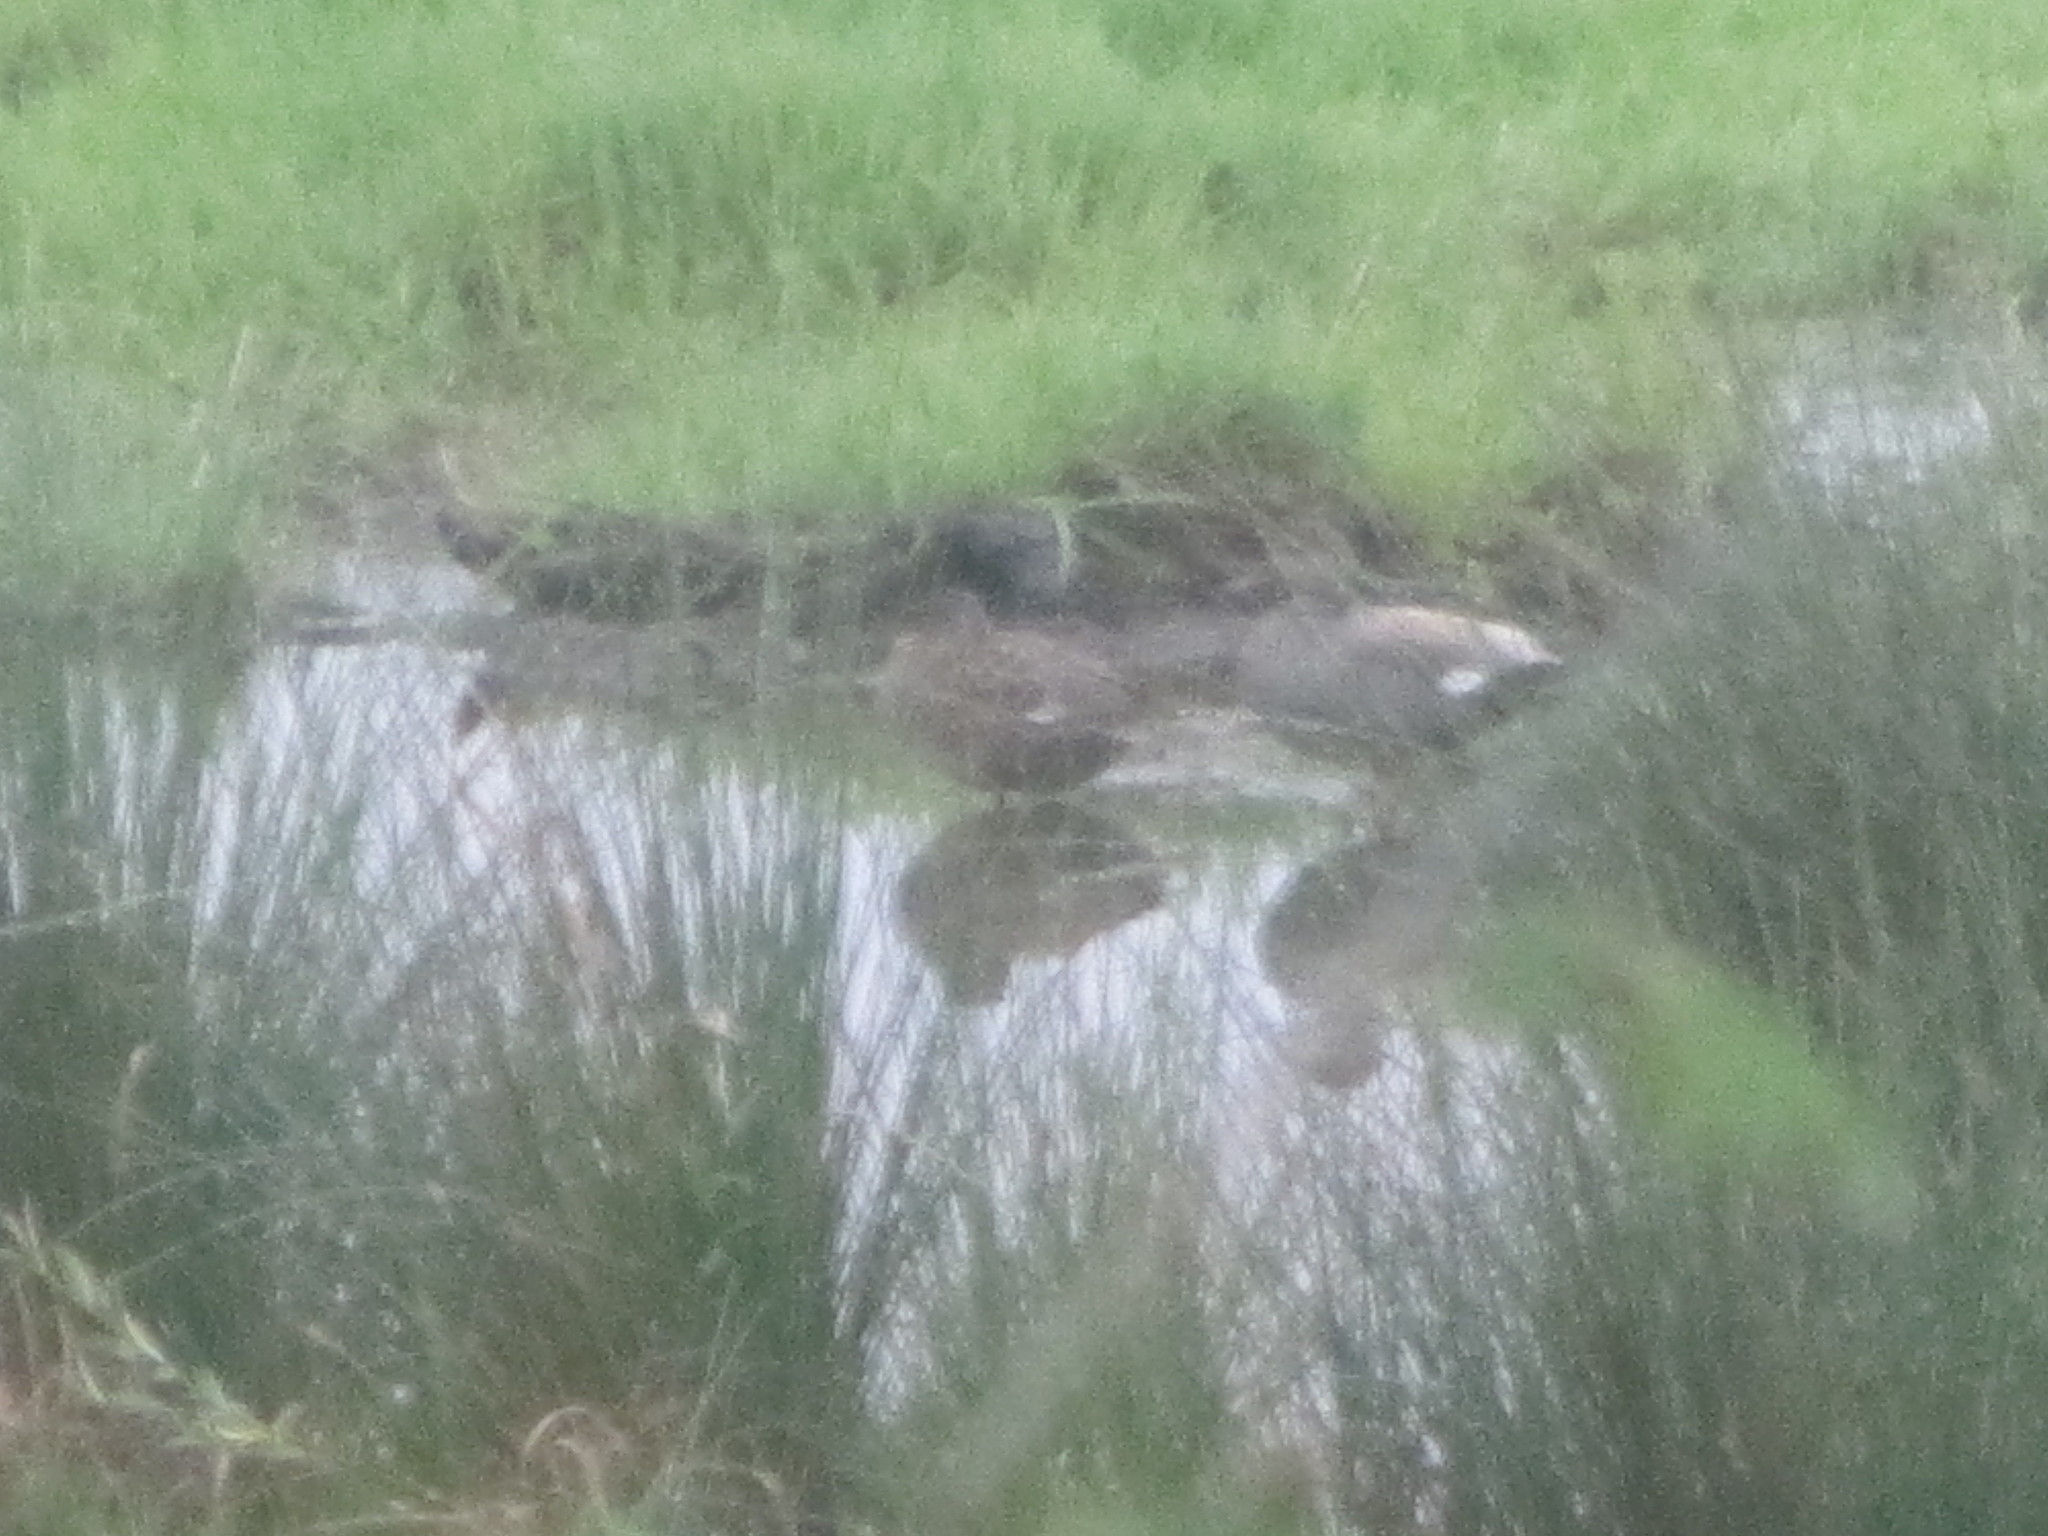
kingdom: Animalia
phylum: Chordata
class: Aves
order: Anseriformes
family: Anatidae
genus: Mareca
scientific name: Mareca strepera
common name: Gadwall
